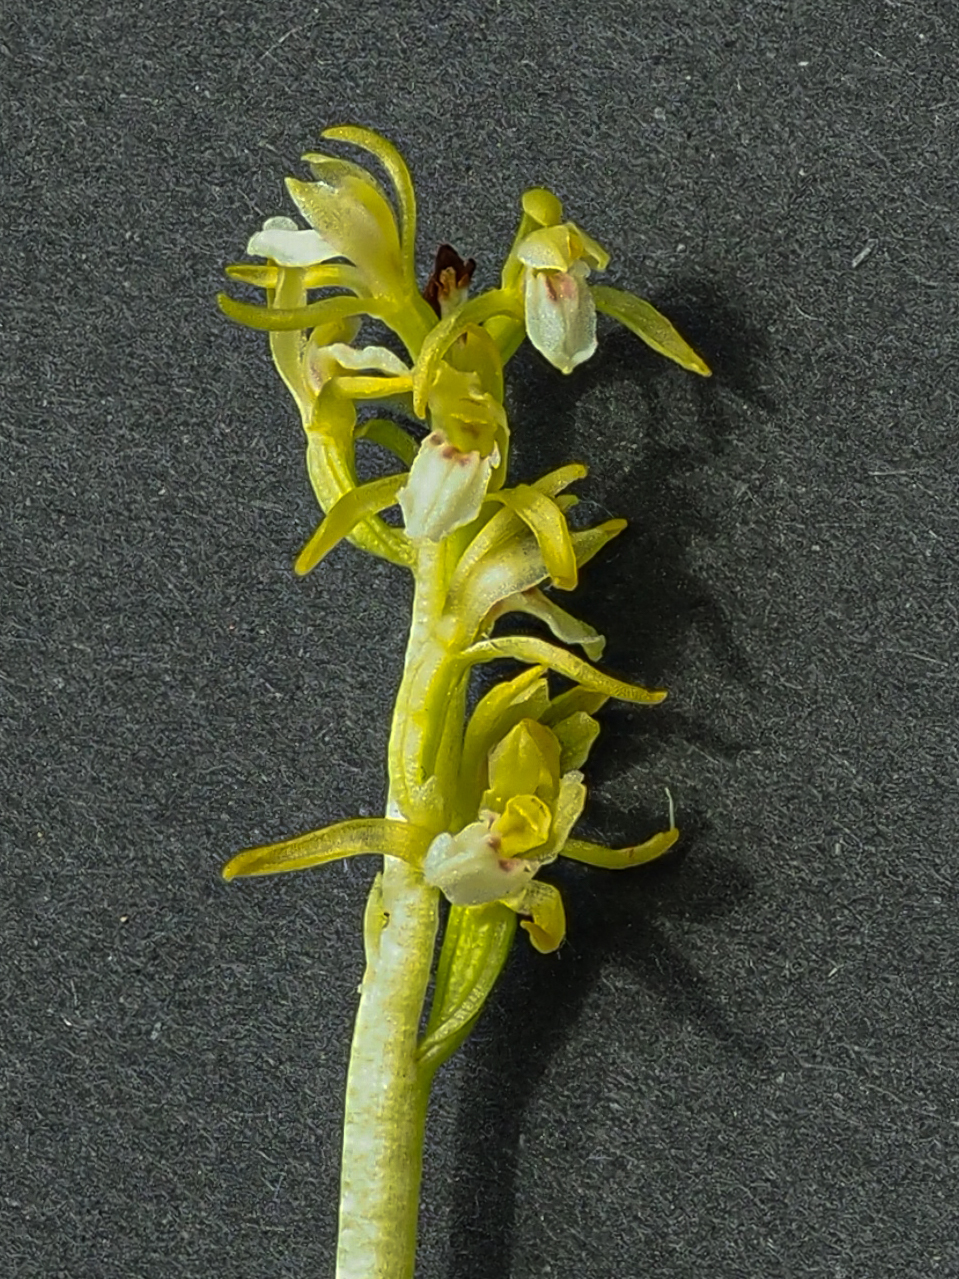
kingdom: Plantae
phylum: Tracheophyta
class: Liliopsida
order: Asparagales
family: Orchidaceae
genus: Corallorhiza
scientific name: Corallorhiza trifida
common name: Yellow coralroot
